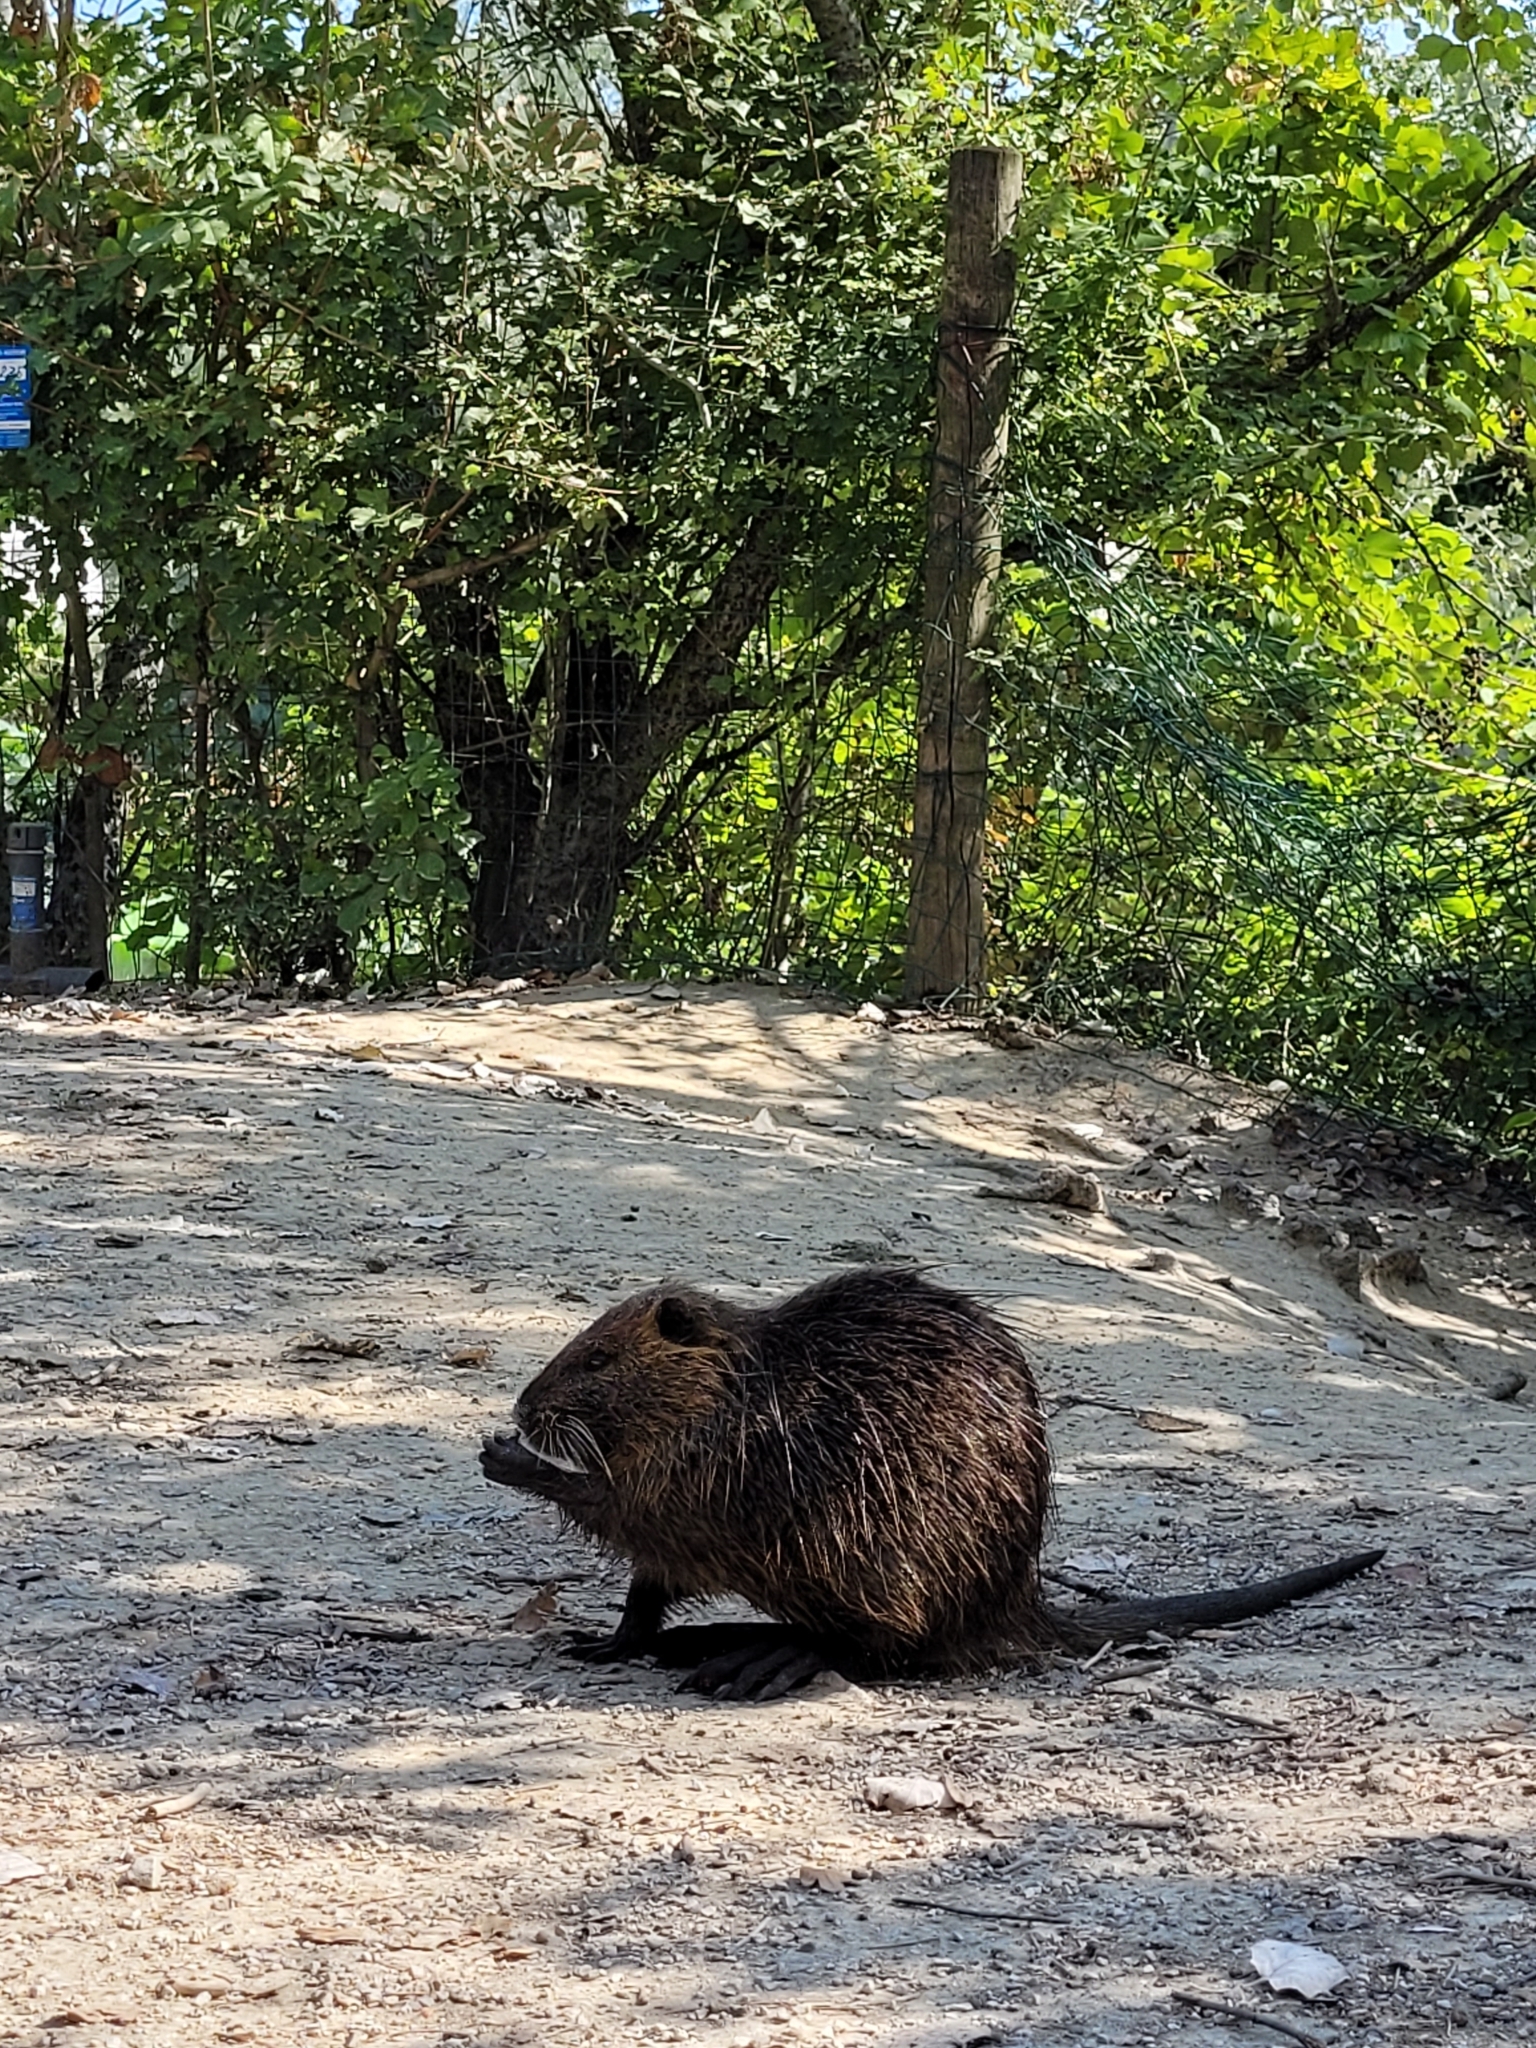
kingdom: Animalia
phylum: Chordata
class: Mammalia
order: Rodentia
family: Myocastoridae
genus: Myocastor
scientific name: Myocastor coypus
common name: Coypu
